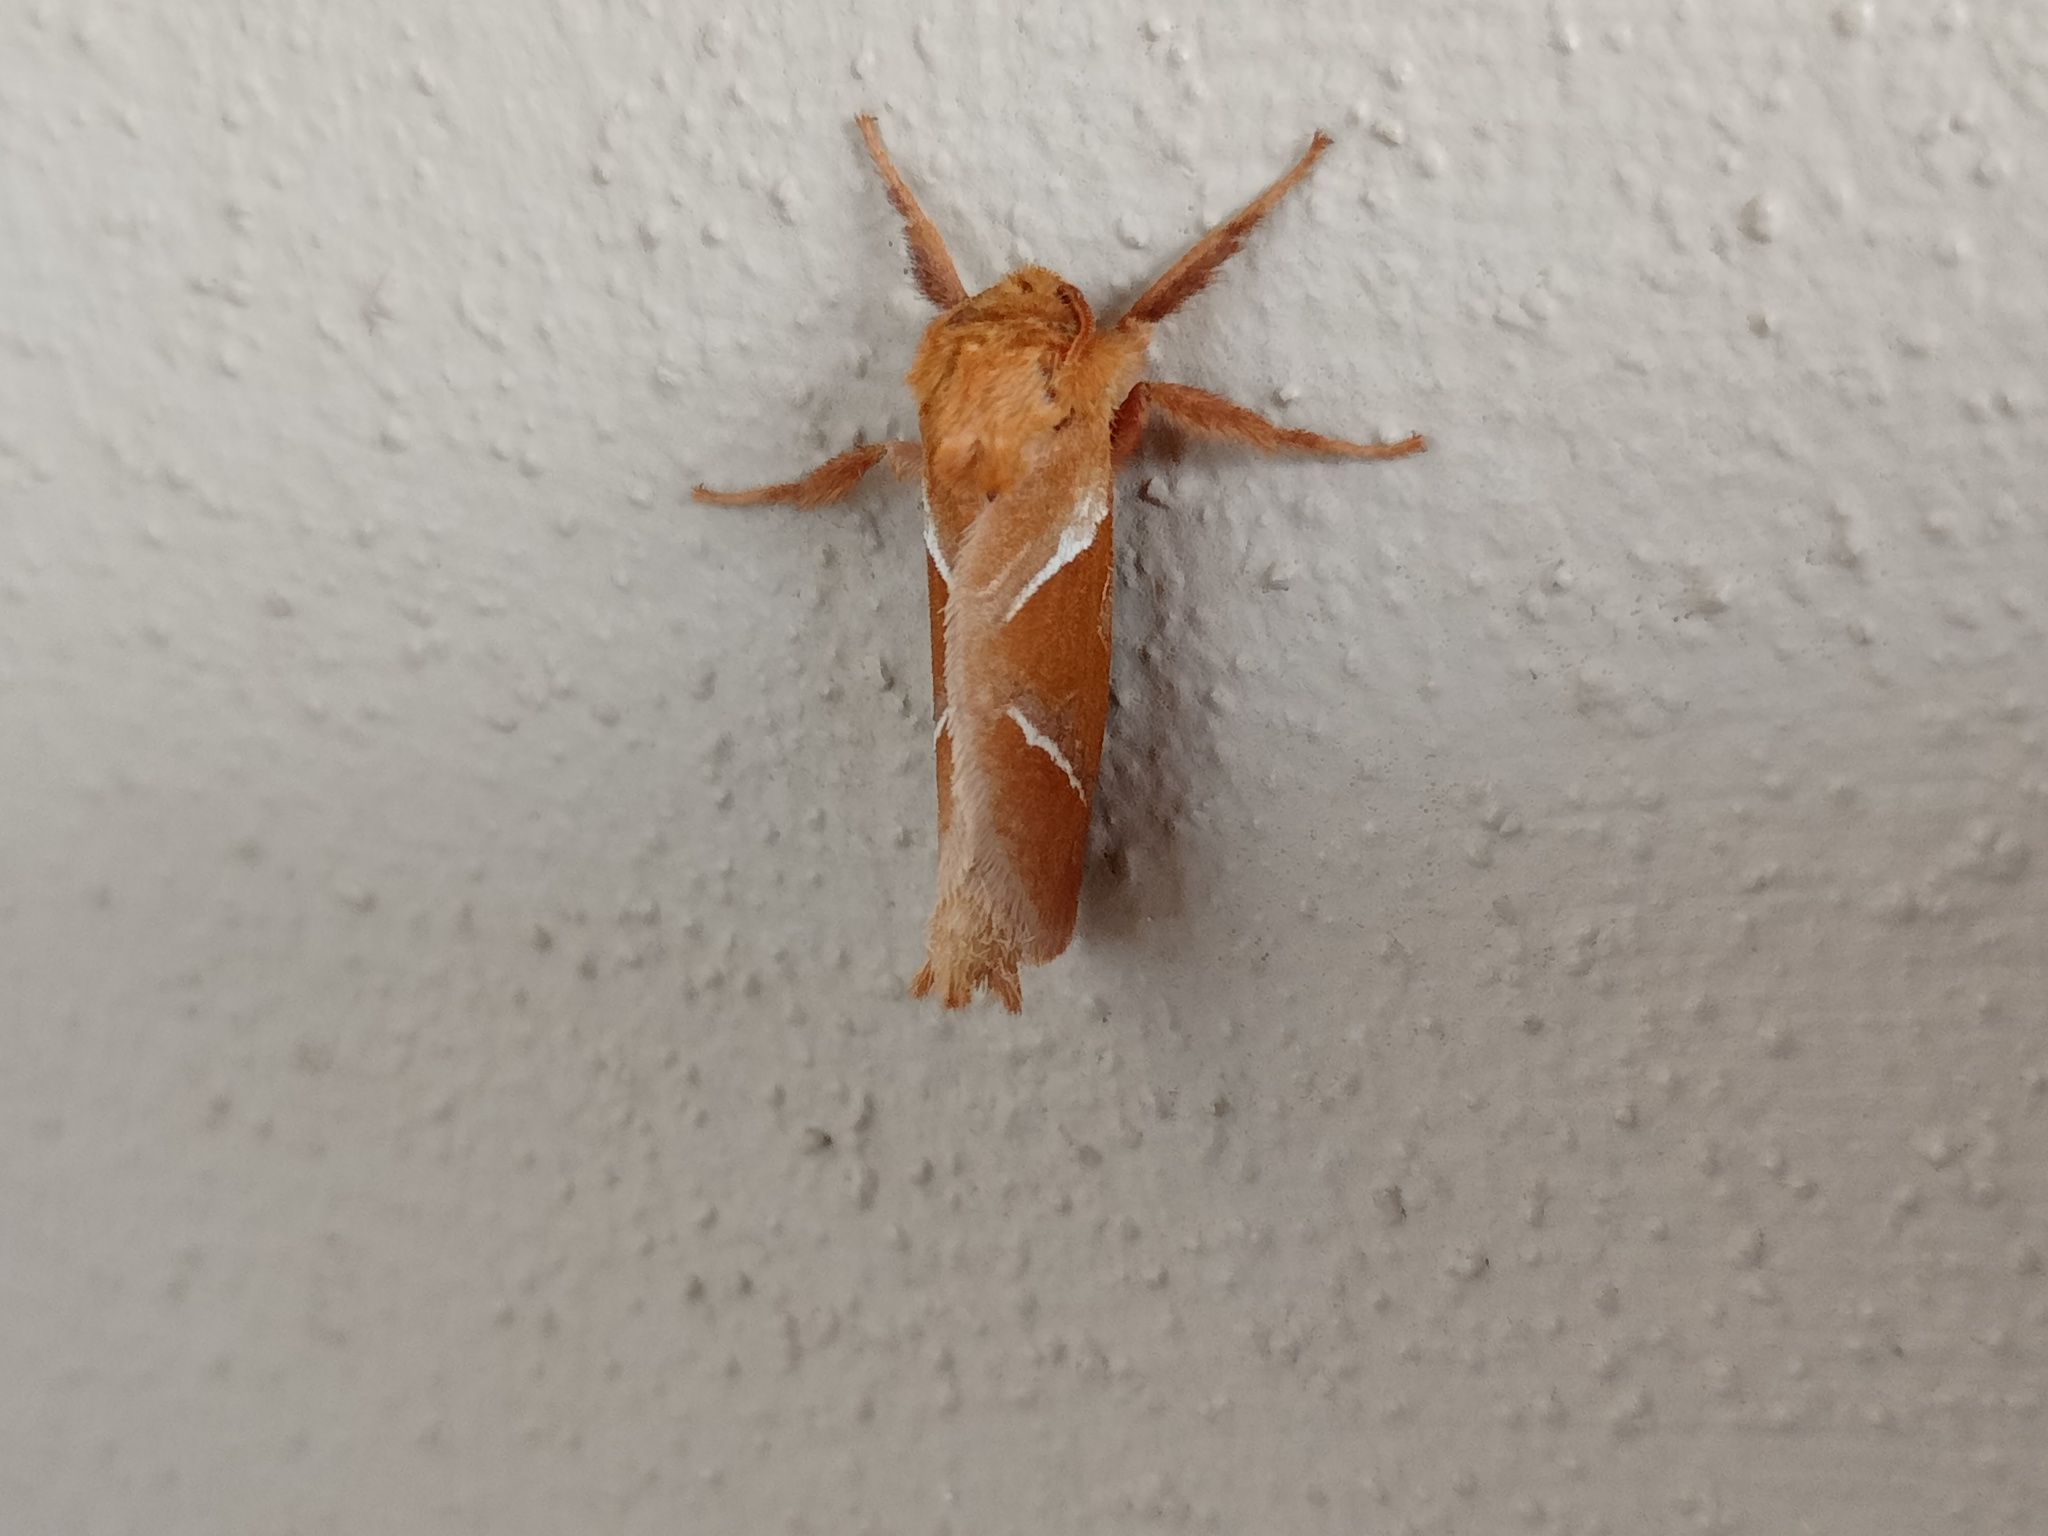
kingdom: Animalia
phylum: Arthropoda
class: Insecta
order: Lepidoptera
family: Hepialidae
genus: Triodia
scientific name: Triodia sylvina
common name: Orange swift
